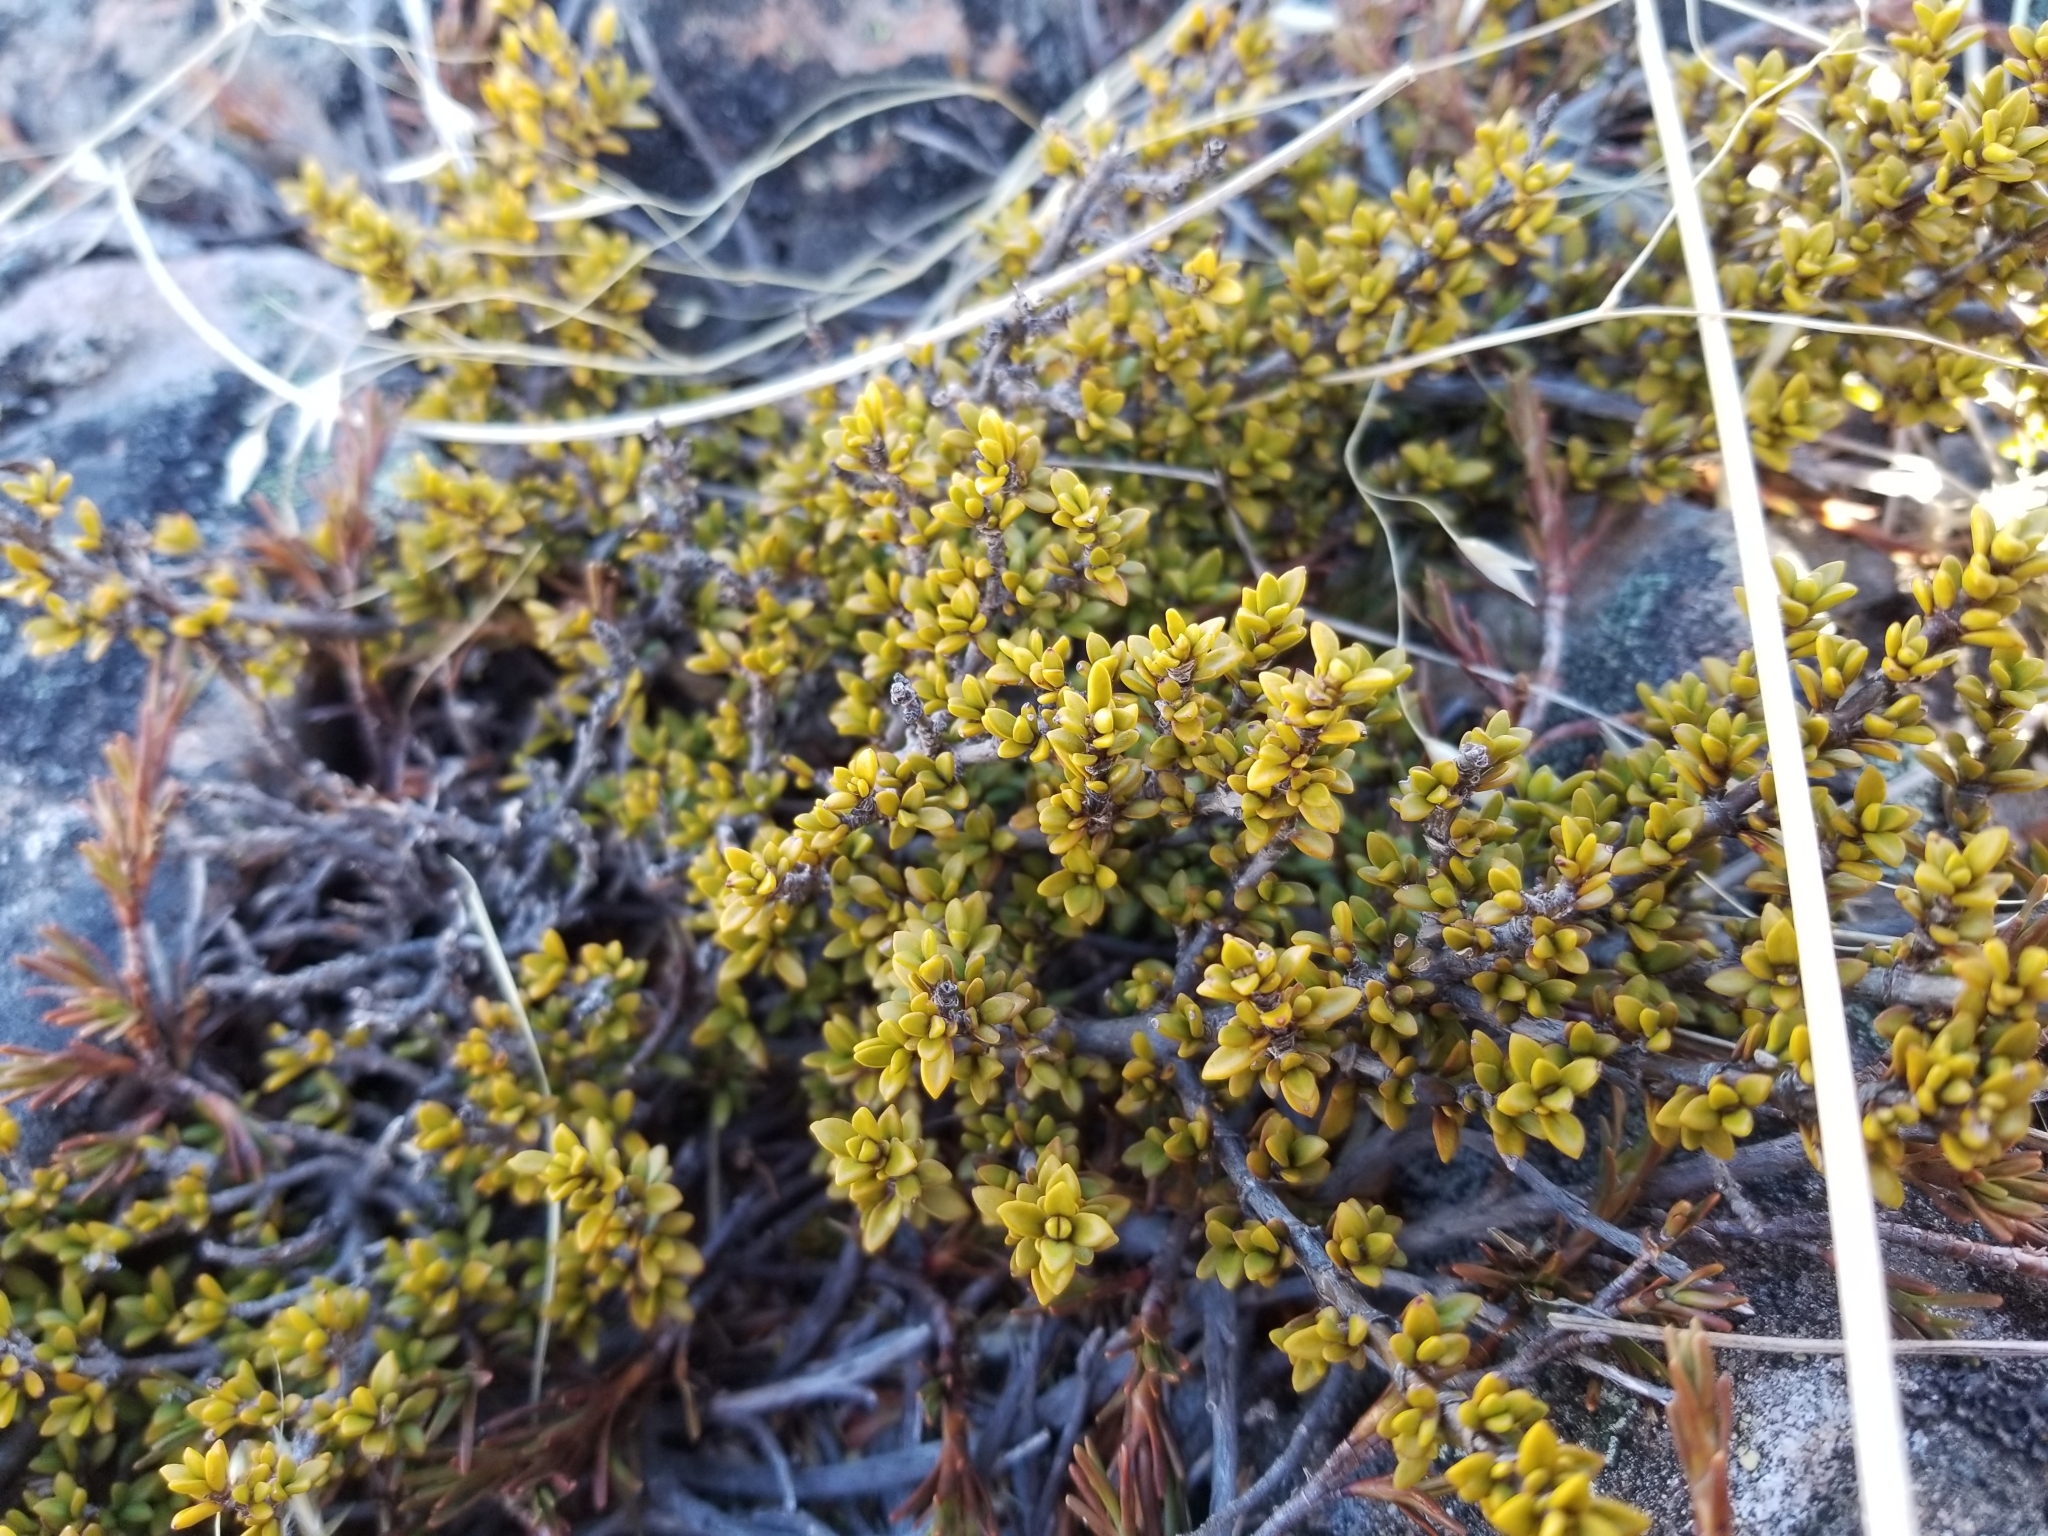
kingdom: Plantae
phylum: Tracheophyta
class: Magnoliopsida
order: Gentianales
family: Rubiaceae
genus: Coprosma
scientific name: Coprosma fowerakeri
